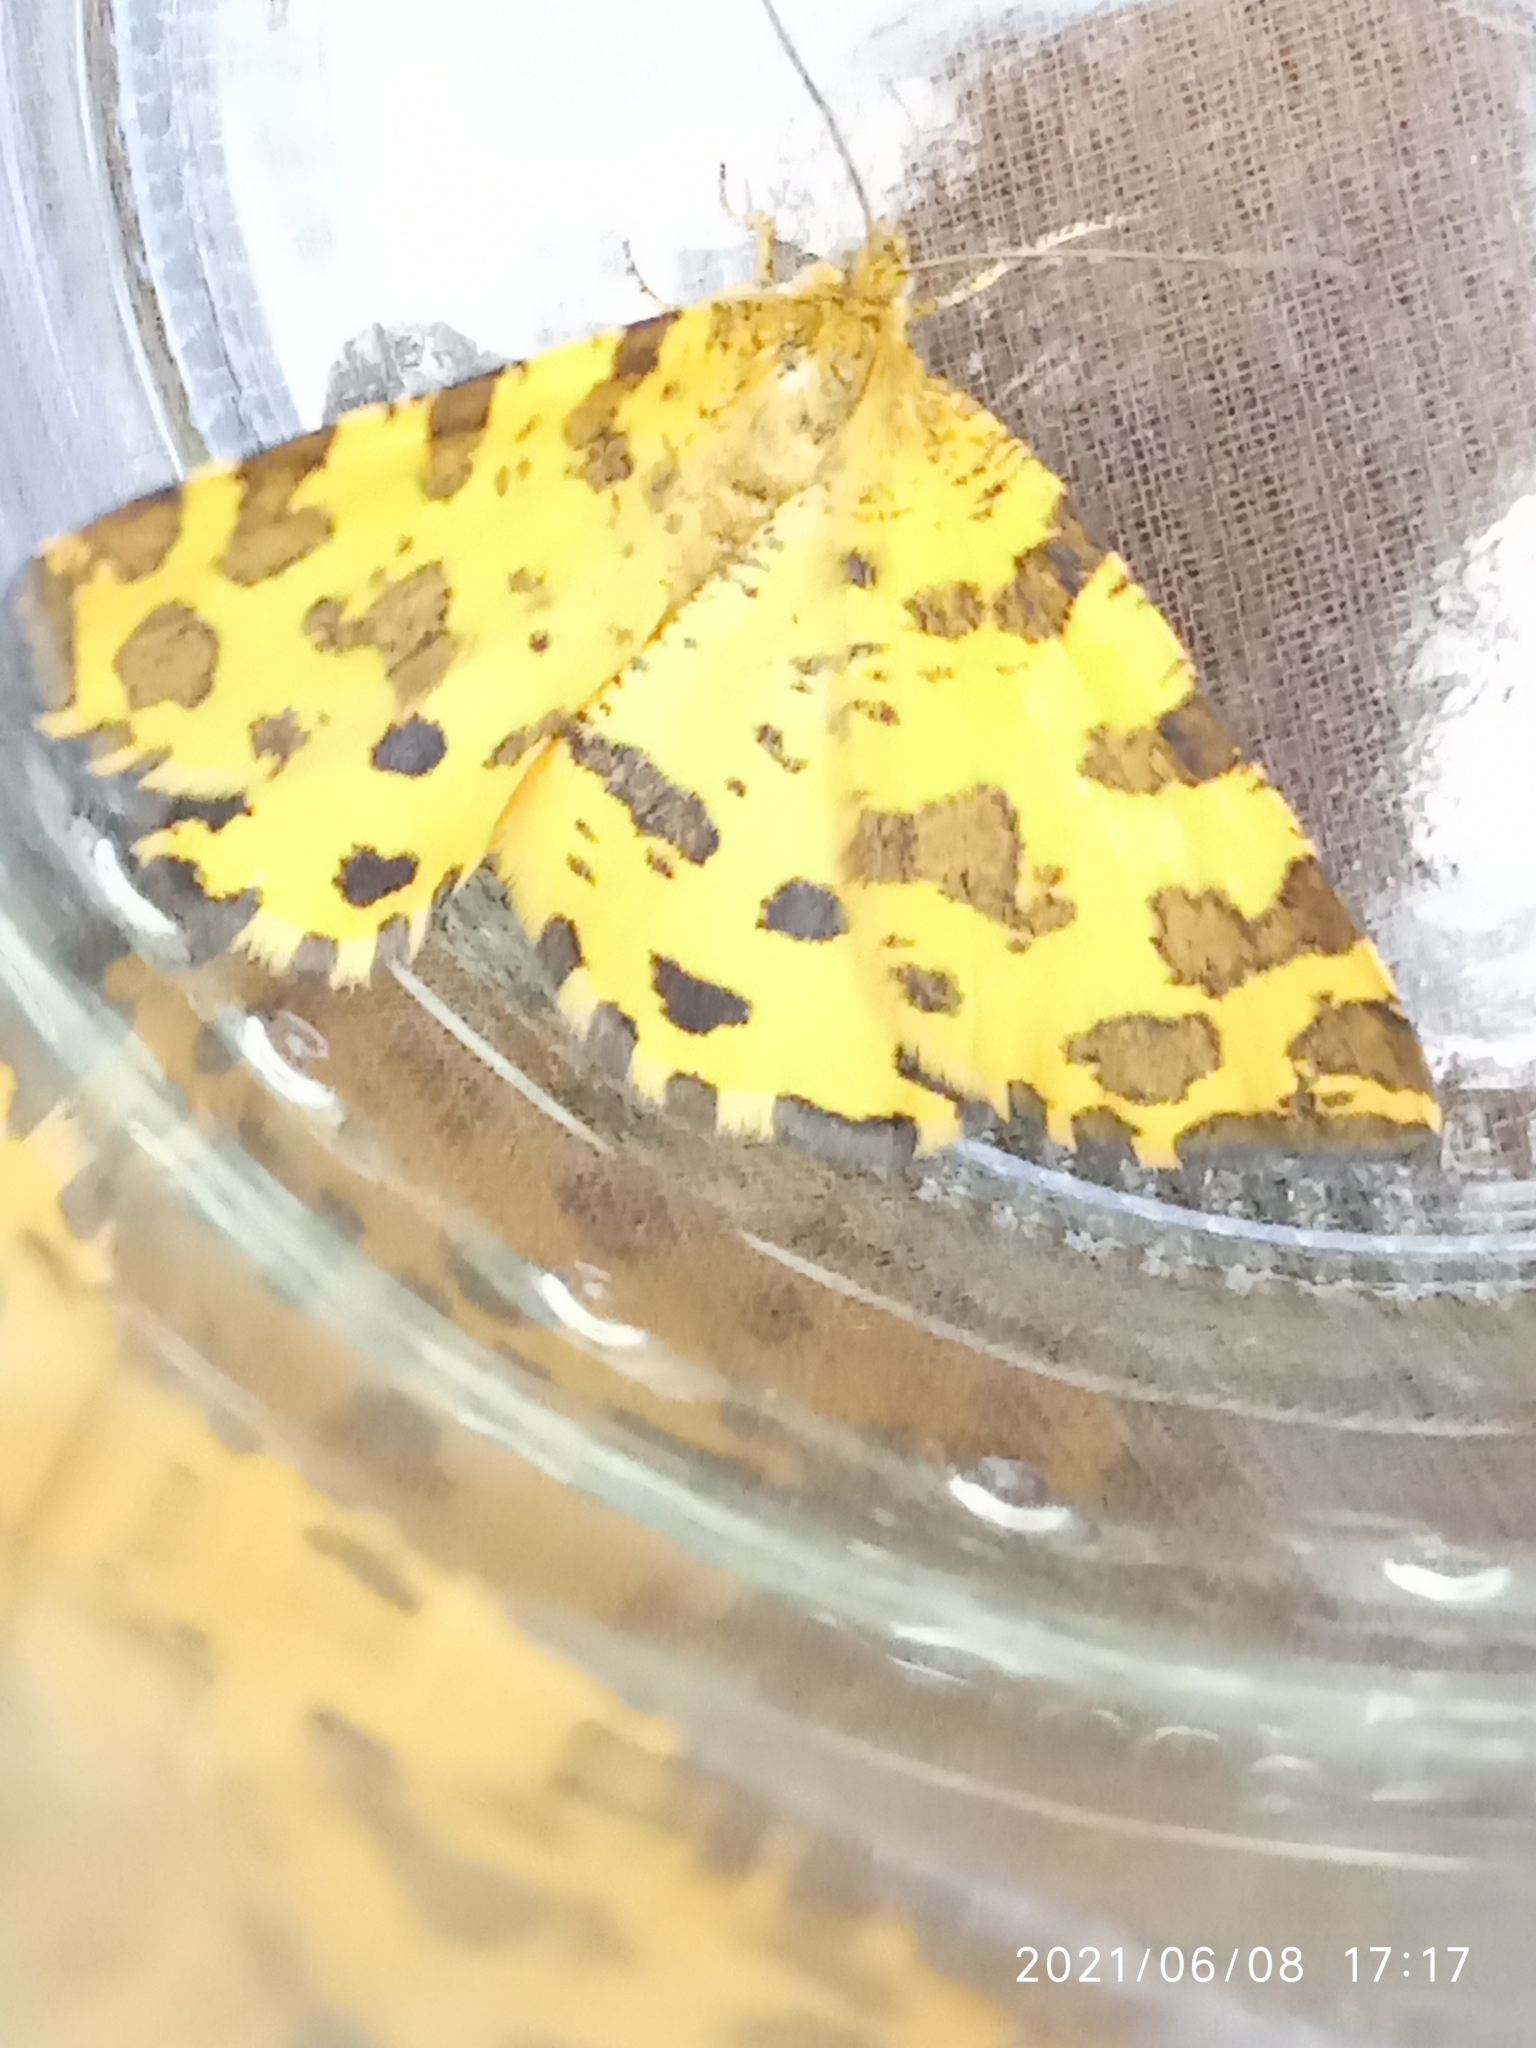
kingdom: Animalia
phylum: Arthropoda
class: Insecta
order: Lepidoptera
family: Geometridae
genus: Pseudopanthera
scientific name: Pseudopanthera macularia
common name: Speckled yellow
